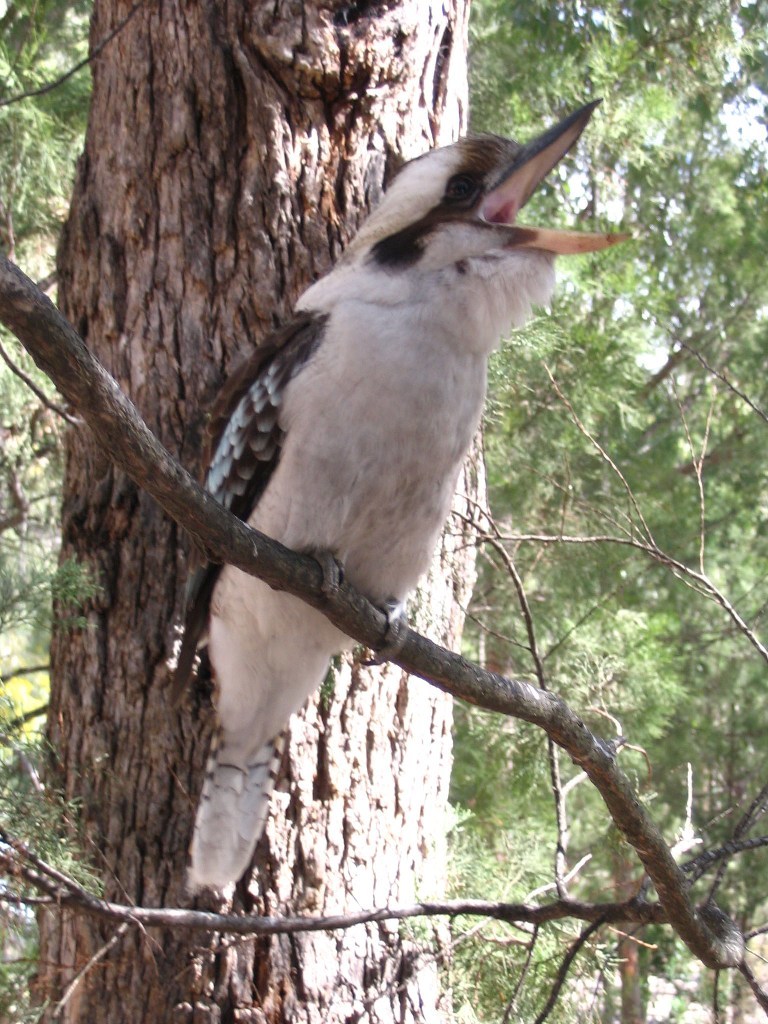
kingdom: Animalia
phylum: Chordata
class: Aves
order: Coraciiformes
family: Alcedinidae
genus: Dacelo
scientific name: Dacelo novaeguineae
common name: Laughing kookaburra
